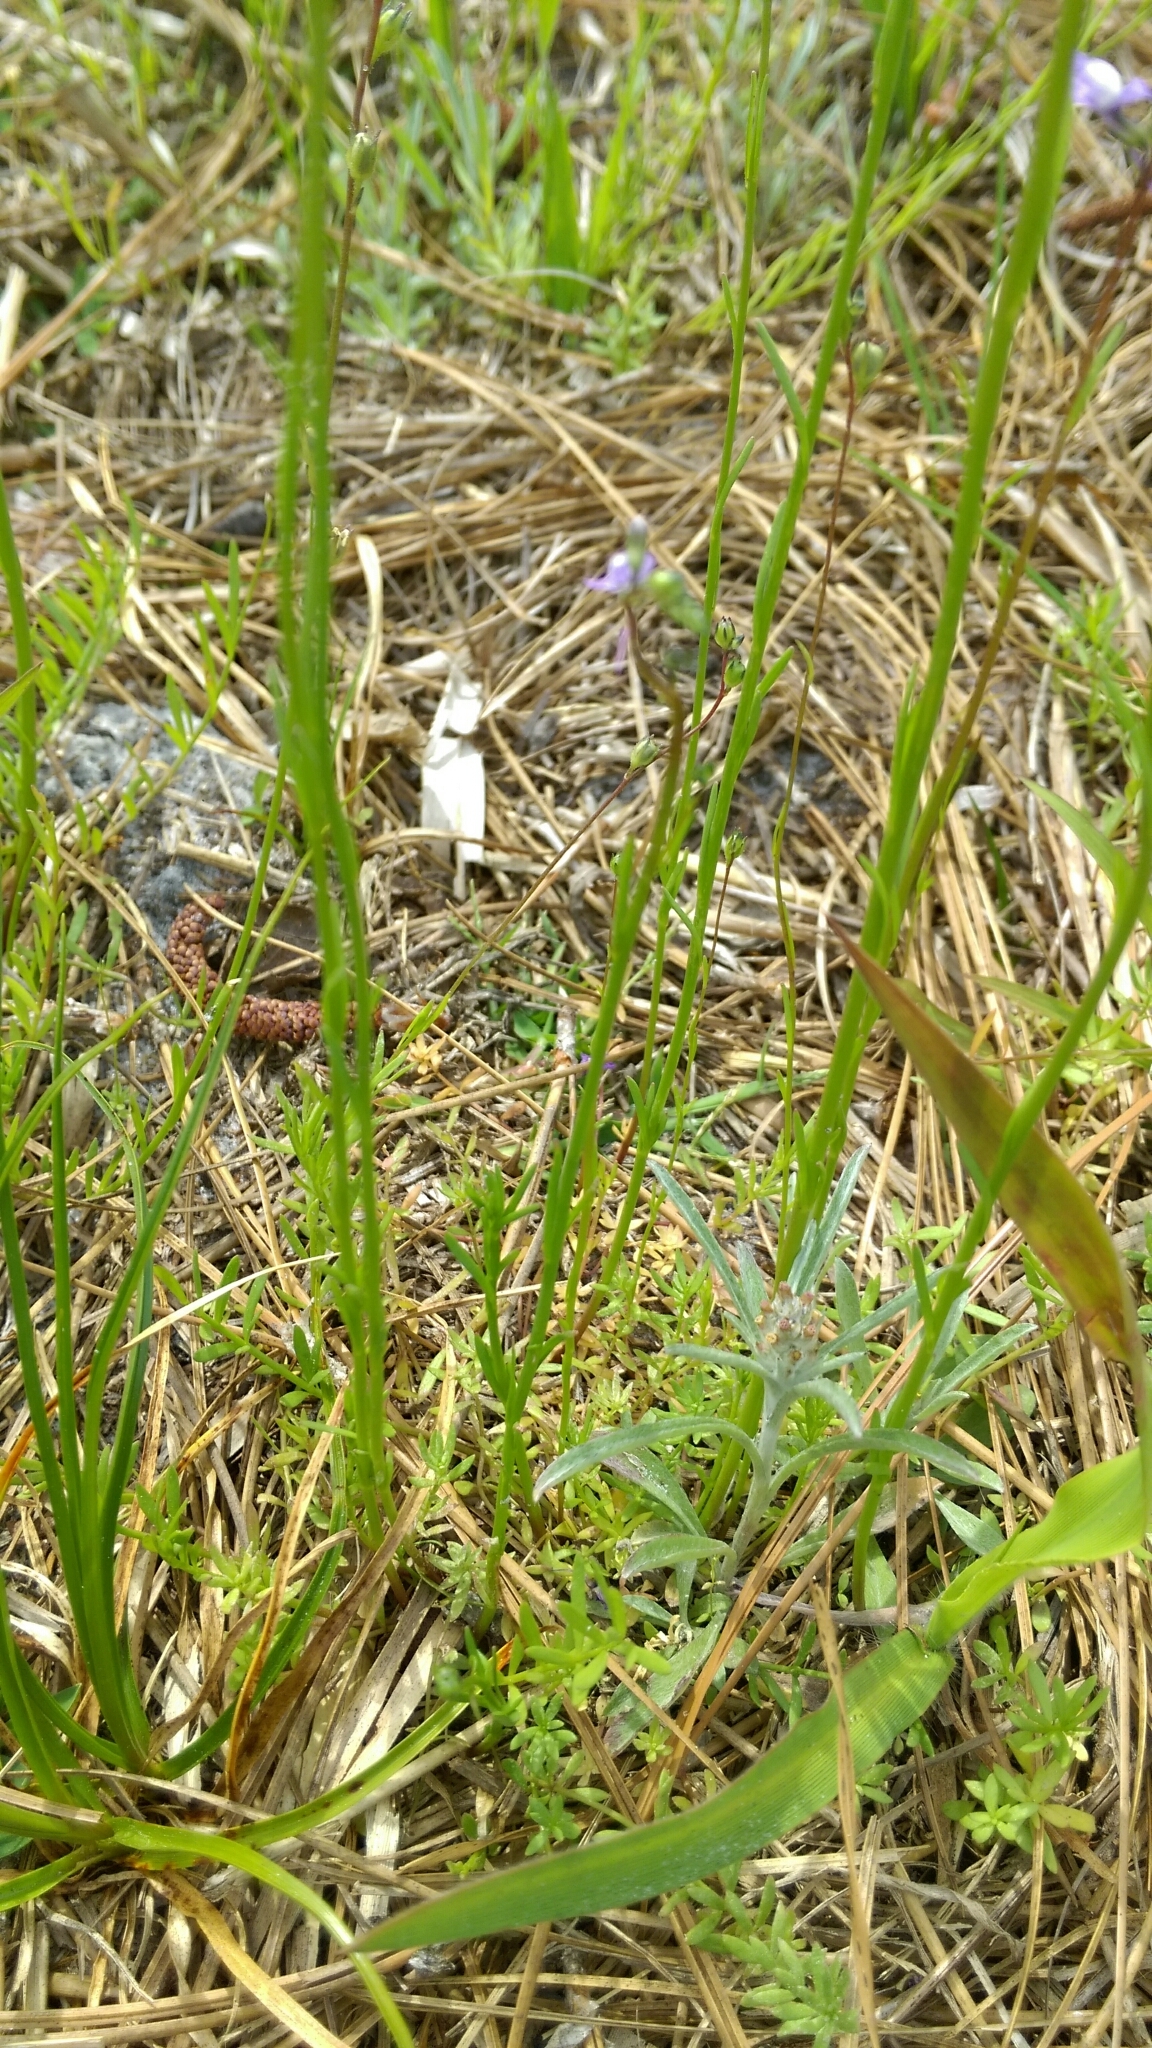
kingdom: Plantae
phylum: Tracheophyta
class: Magnoliopsida
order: Lamiales
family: Plantaginaceae
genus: Nuttallanthus
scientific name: Nuttallanthus canadensis
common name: Blue toadflax
